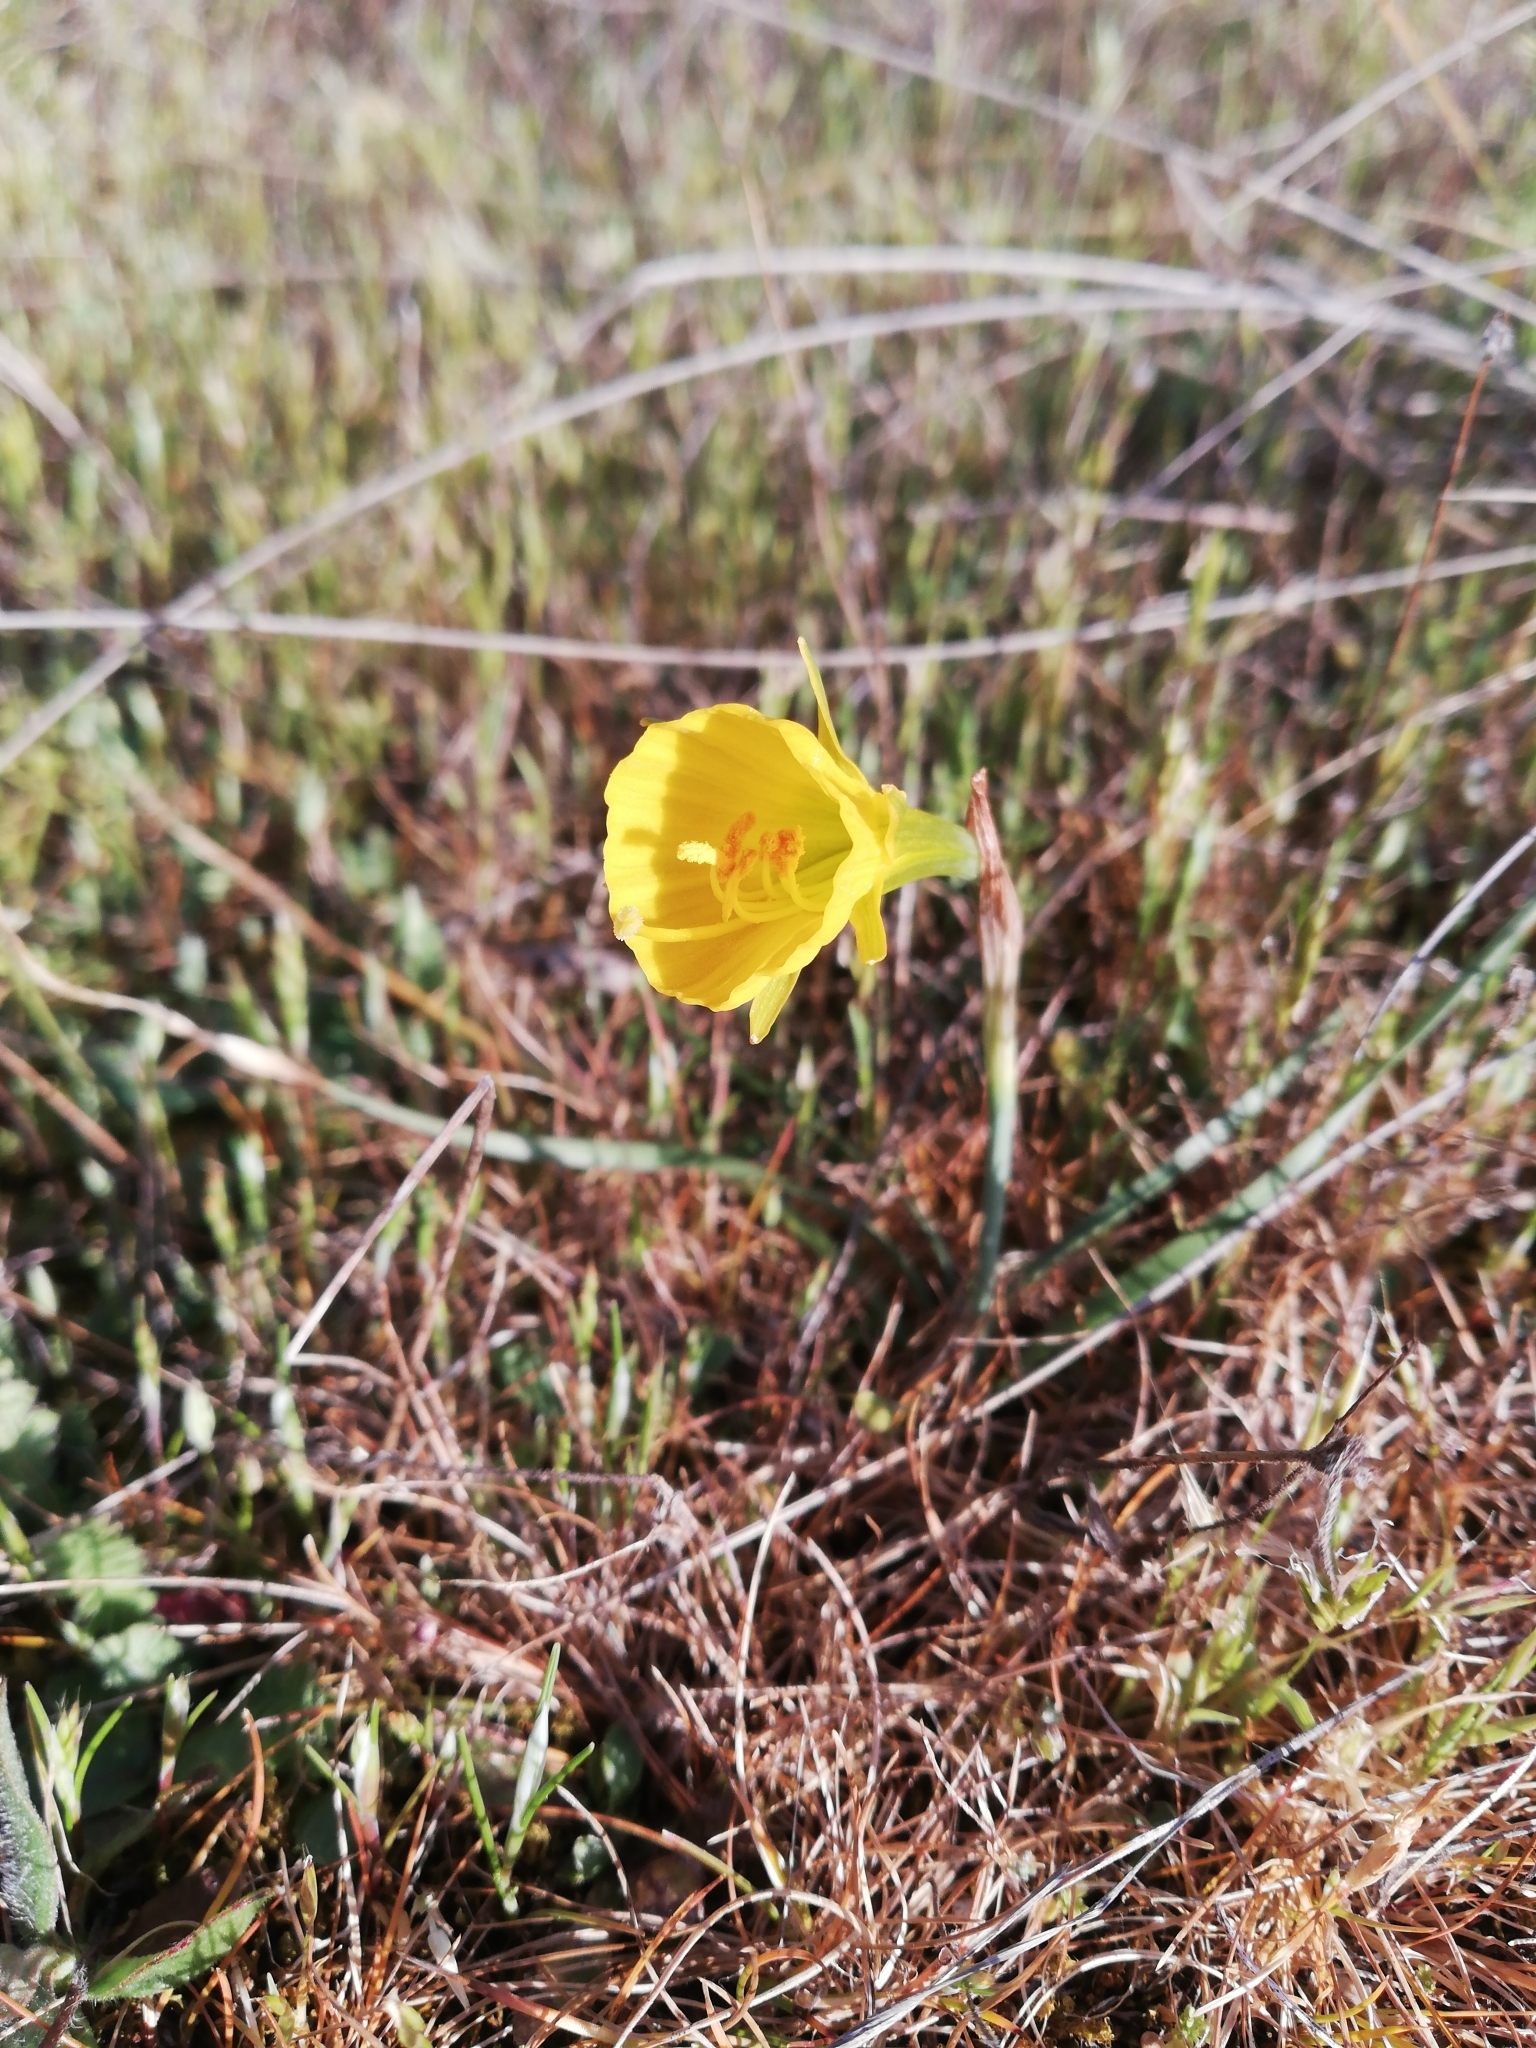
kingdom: Plantae
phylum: Tracheophyta
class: Liliopsida
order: Asparagales
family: Amaryllidaceae
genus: Narcissus
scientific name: Narcissus bulbocodium
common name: Hoop-petticoat daffodil
